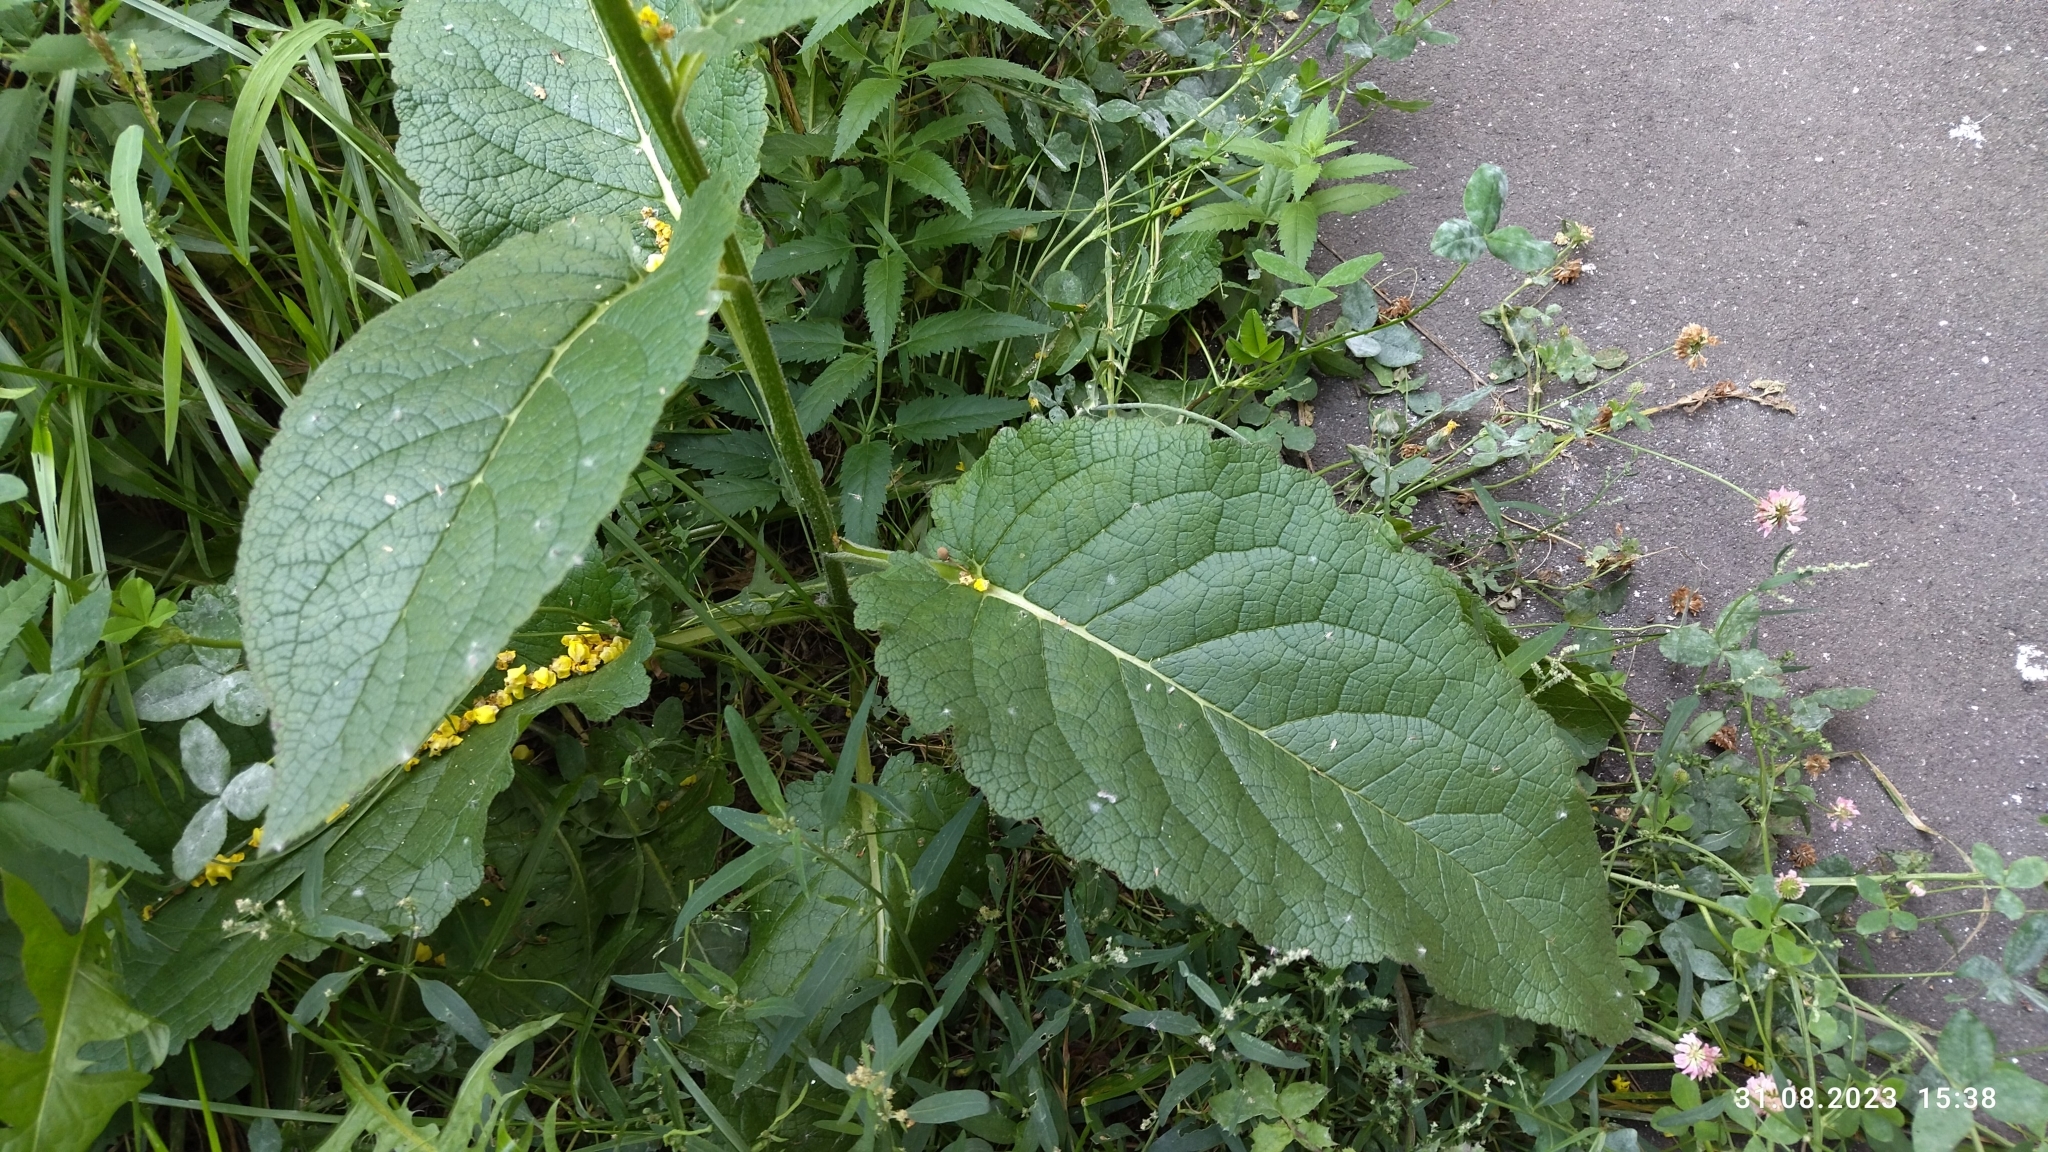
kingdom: Plantae
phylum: Tracheophyta
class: Magnoliopsida
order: Lamiales
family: Scrophulariaceae
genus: Verbascum
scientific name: Verbascum nigrum
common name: Dark mullein
